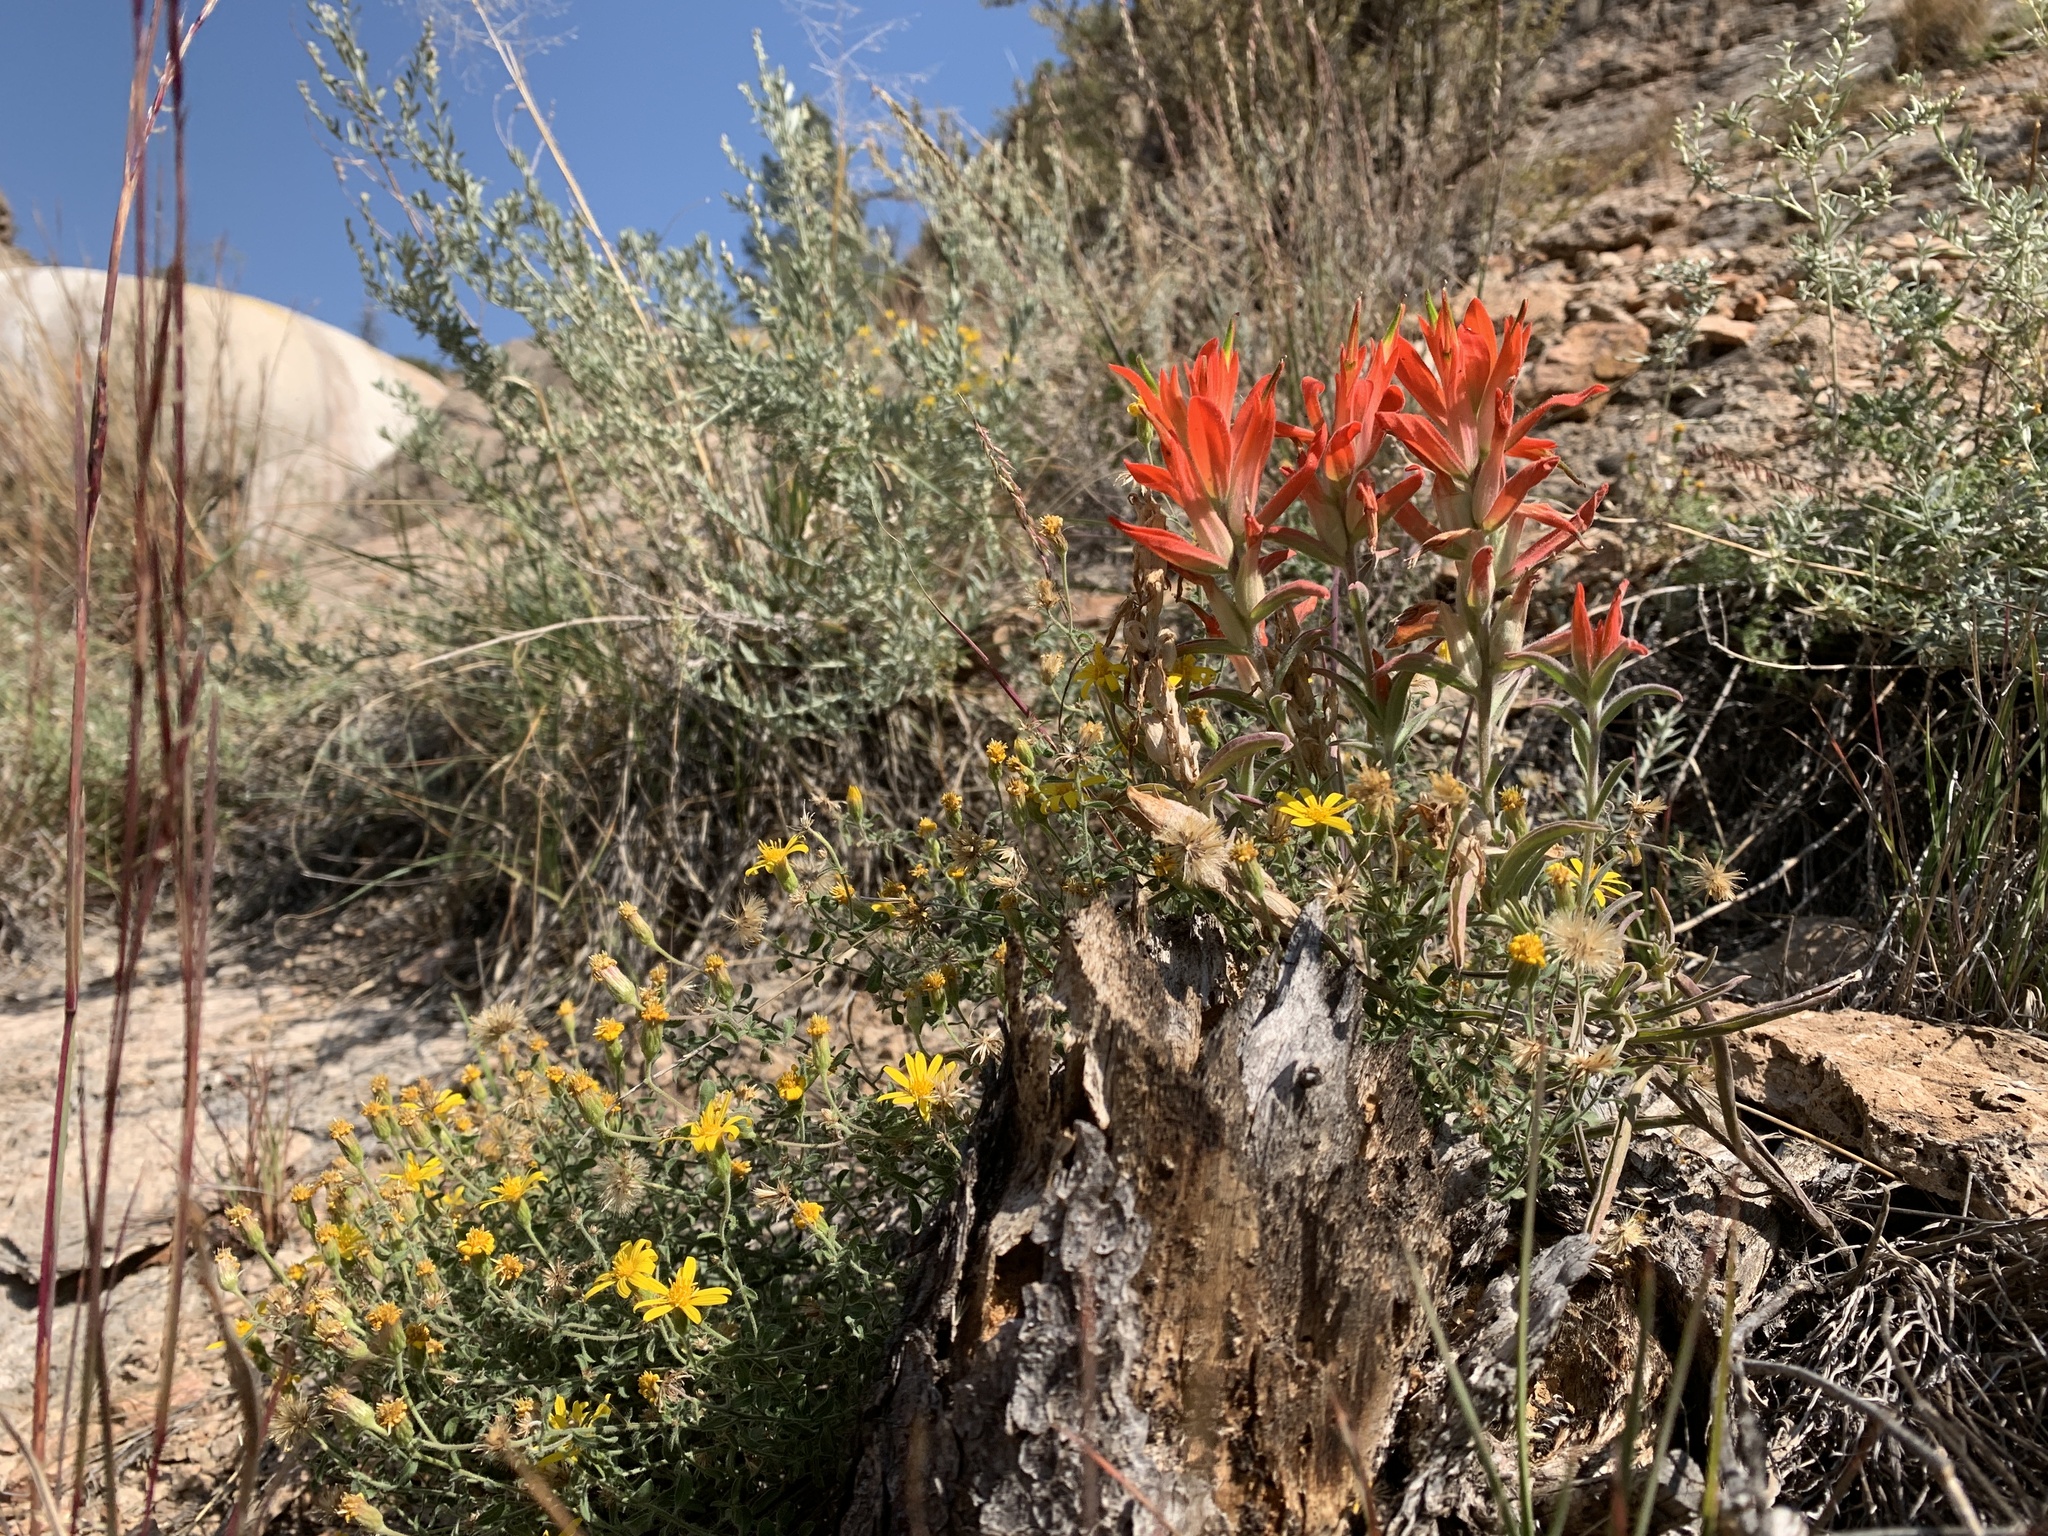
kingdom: Plantae
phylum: Tracheophyta
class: Magnoliopsida
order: Lamiales
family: Orobanchaceae
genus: Castilleja
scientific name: Castilleja integra
